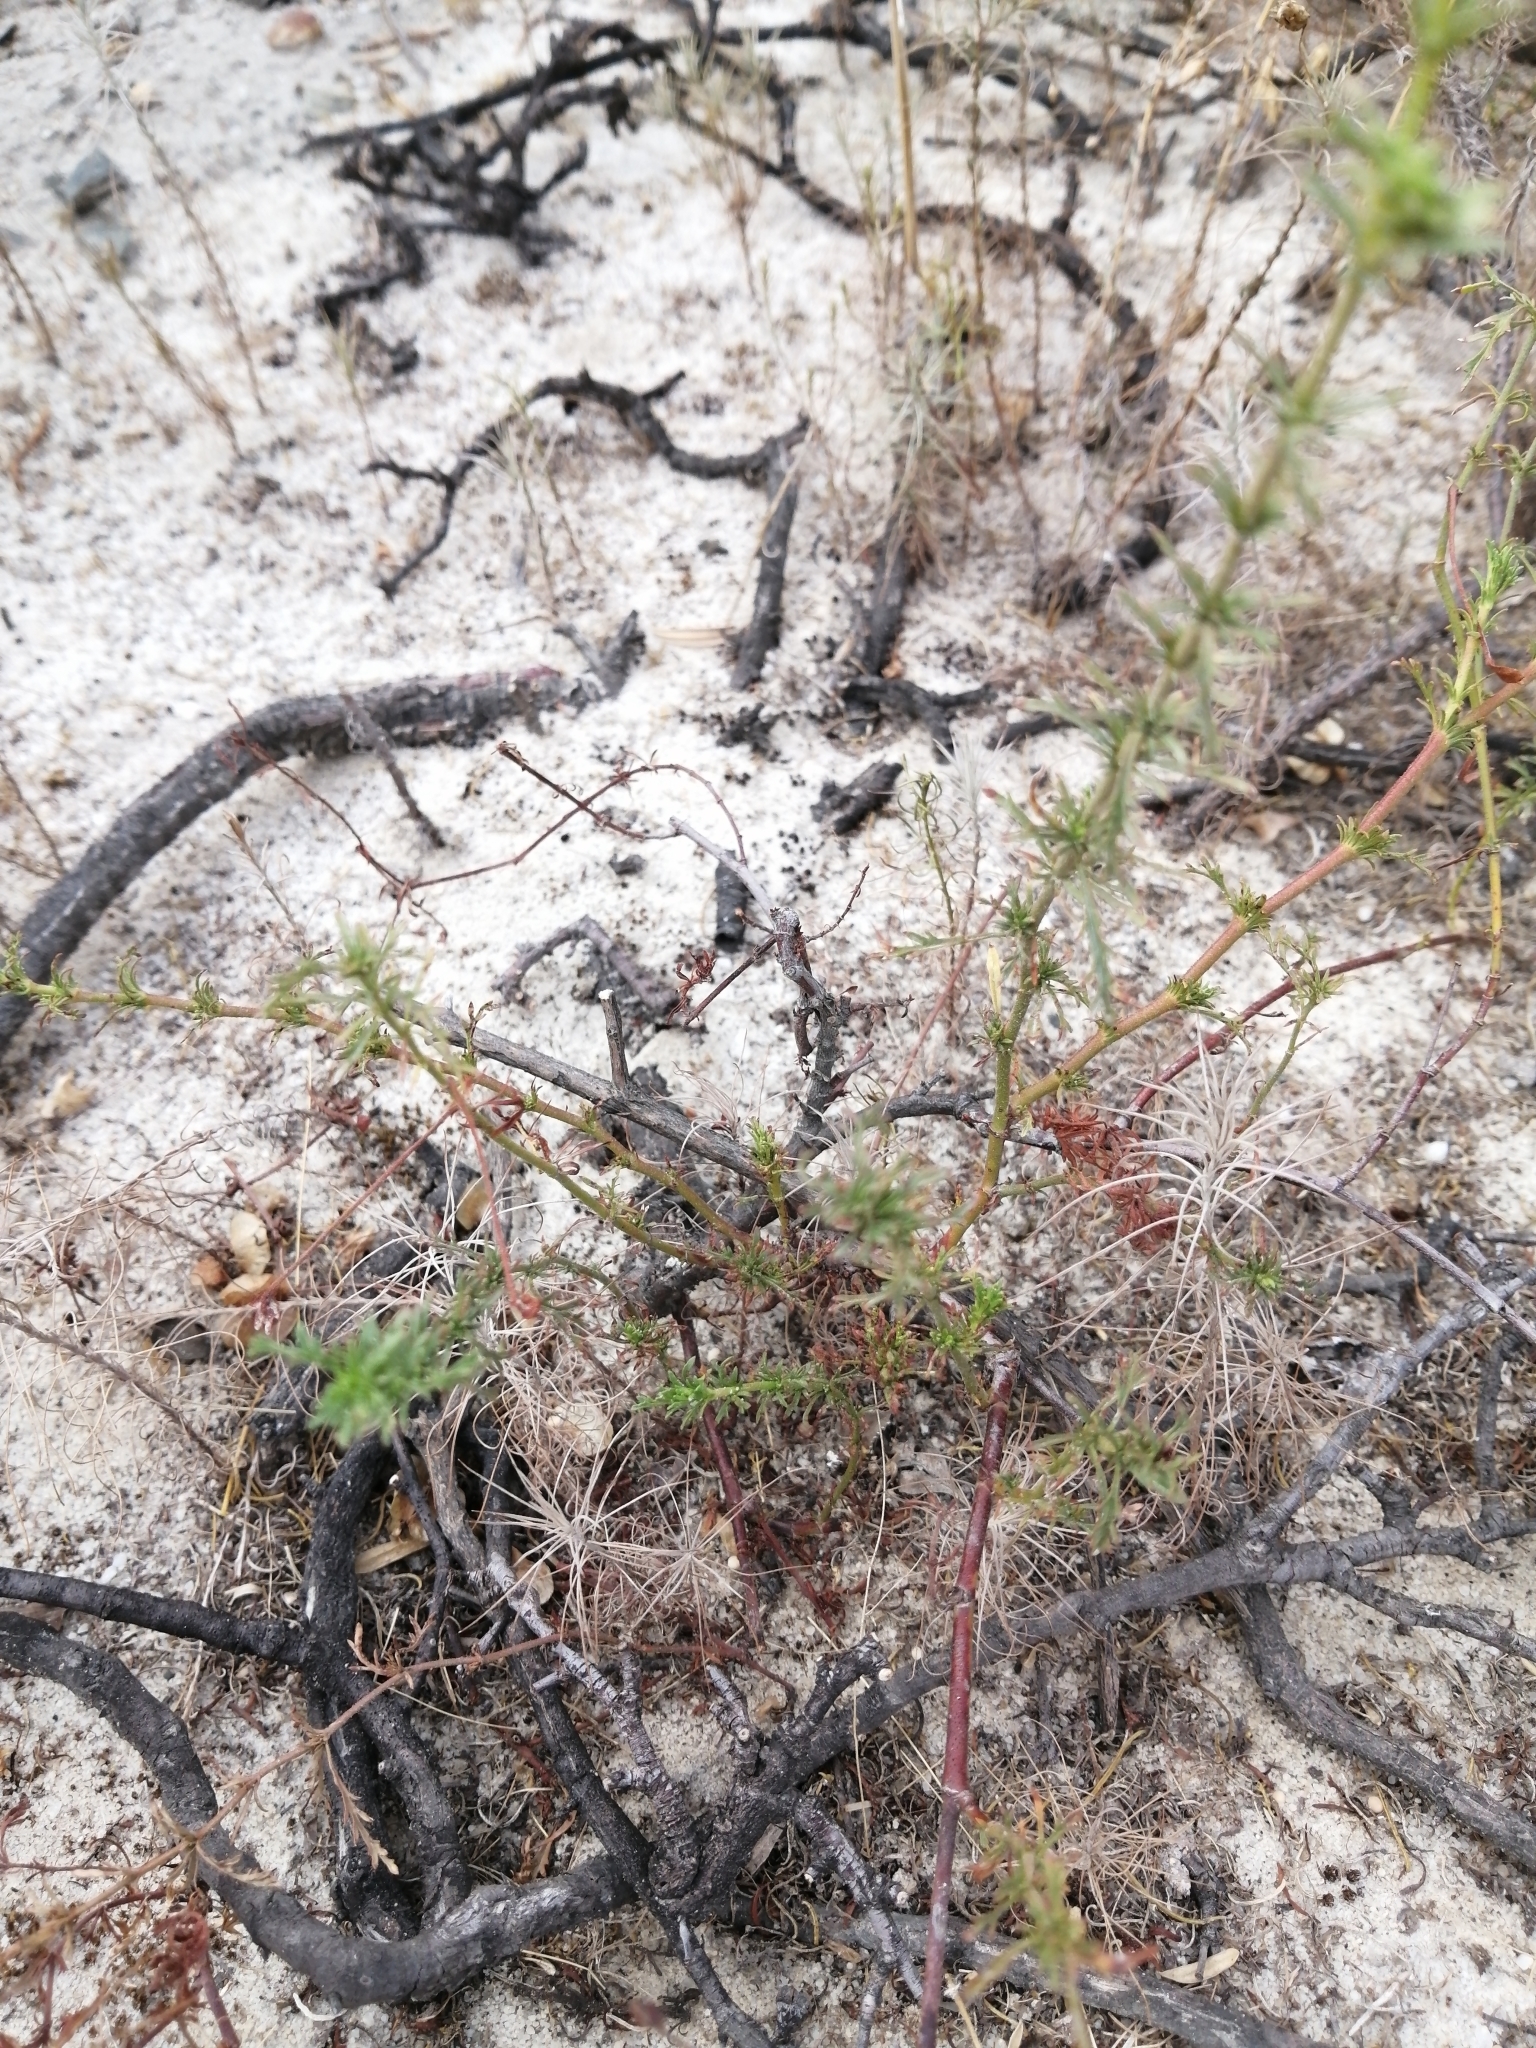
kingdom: Plantae
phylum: Tracheophyta
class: Magnoliopsida
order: Asterales
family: Asteraceae
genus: Ursinia
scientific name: Ursinia chrysanthemoides
